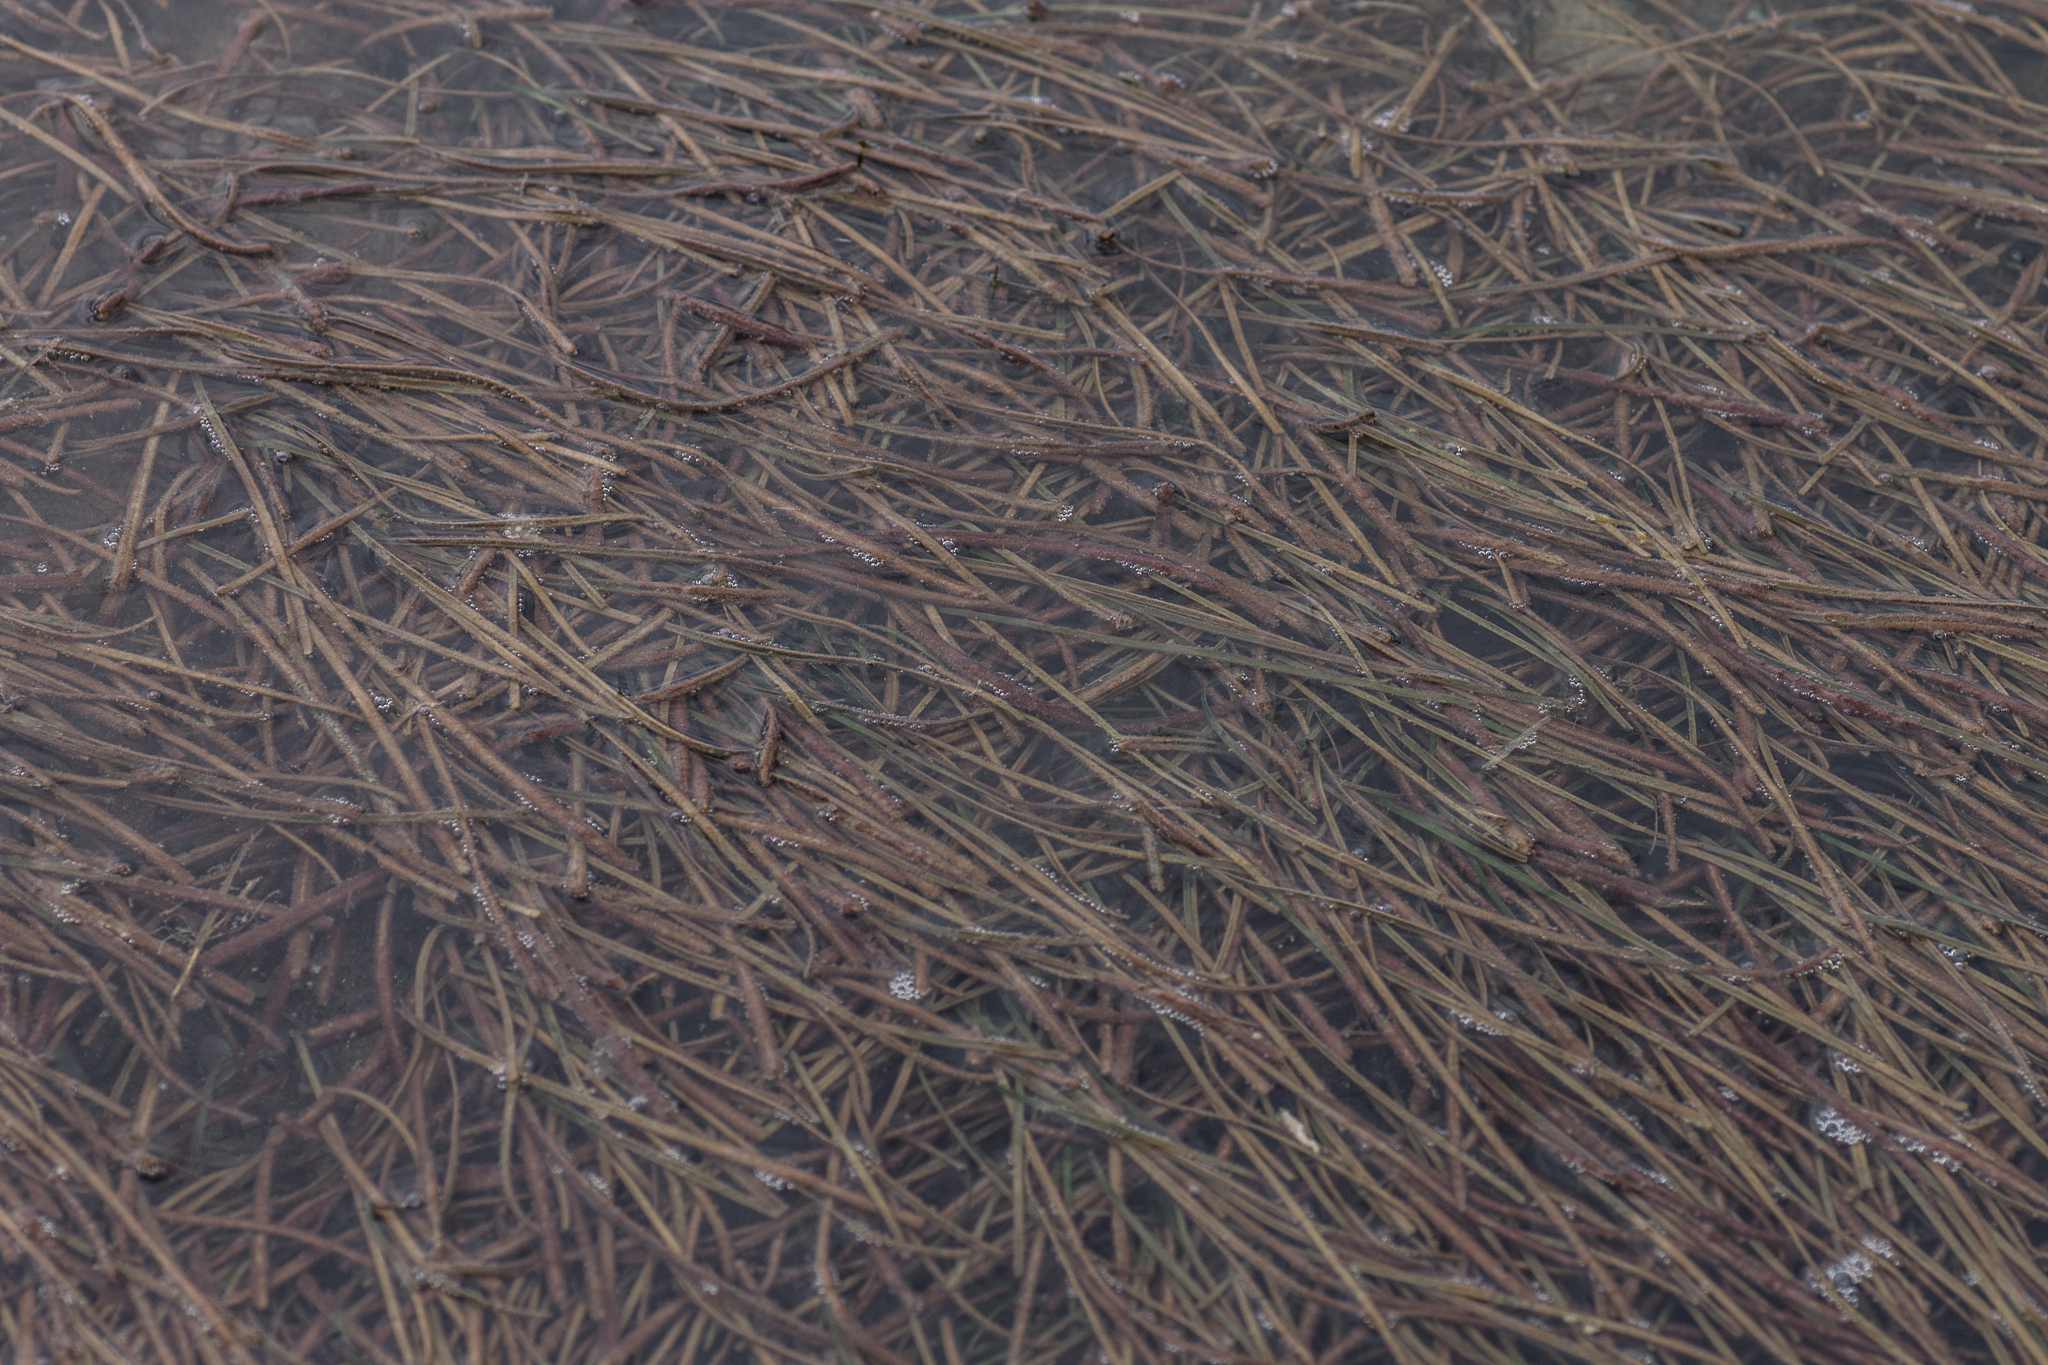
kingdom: Plantae
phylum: Tracheophyta
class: Liliopsida
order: Poales
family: Cyperaceae
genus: Schoenoplectus
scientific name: Schoenoplectus pungens
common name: Sharp club-rush
